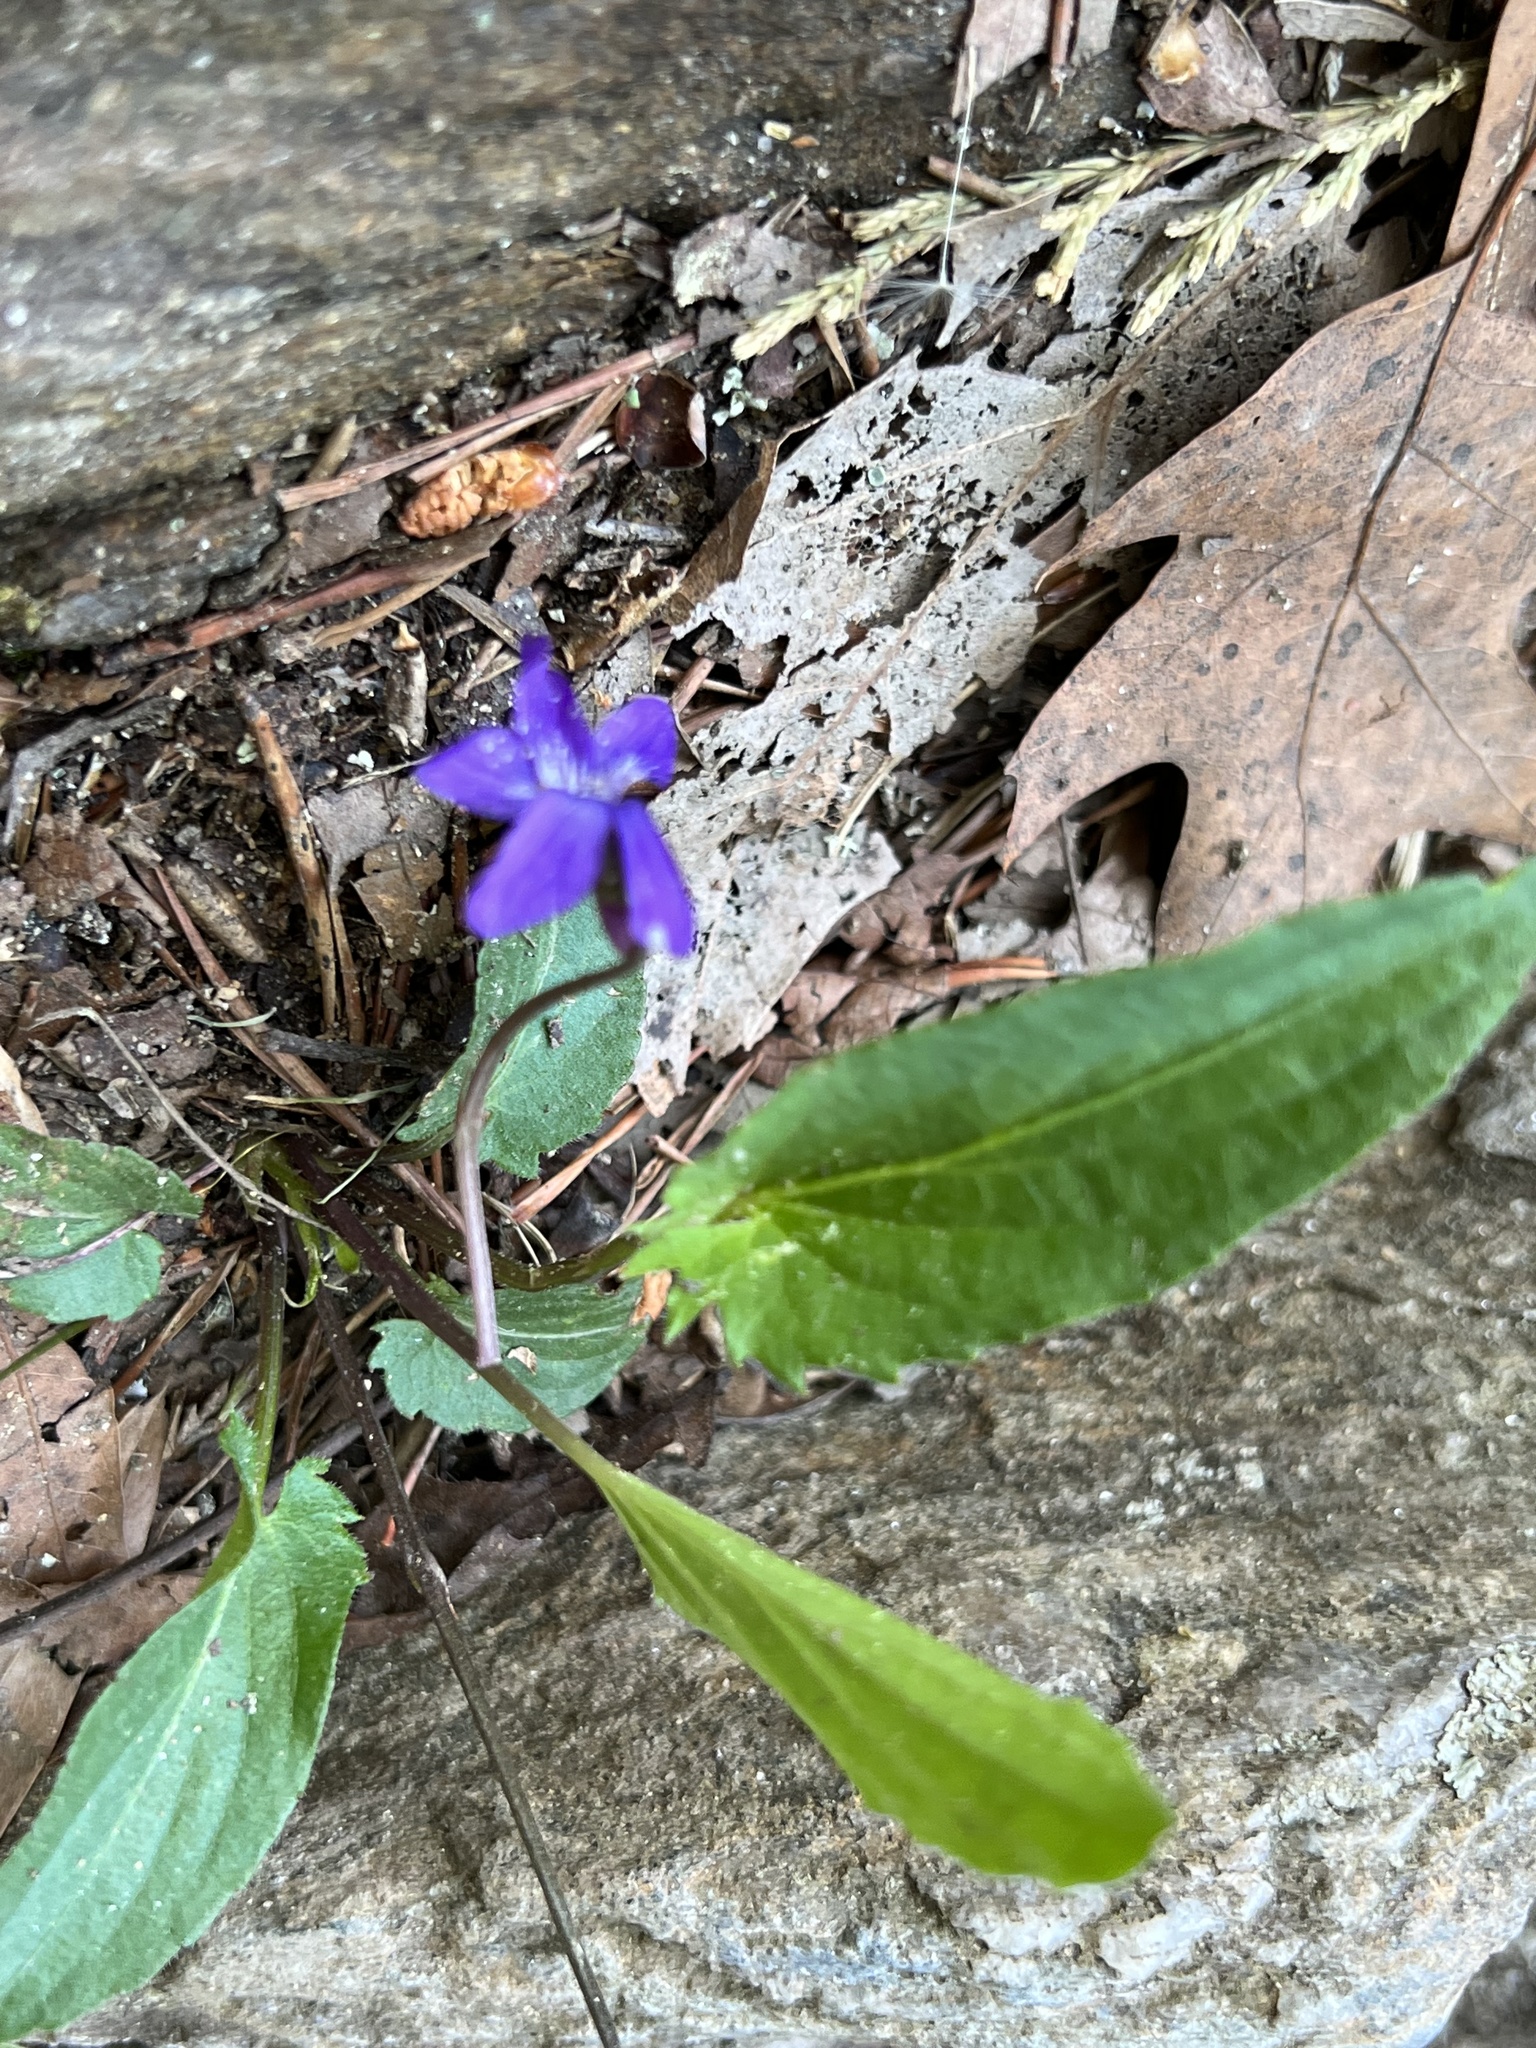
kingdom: Plantae
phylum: Tracheophyta
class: Magnoliopsida
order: Malpighiales
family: Violaceae
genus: Viola
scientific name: Viola sagittata
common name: Arrowhead violet
